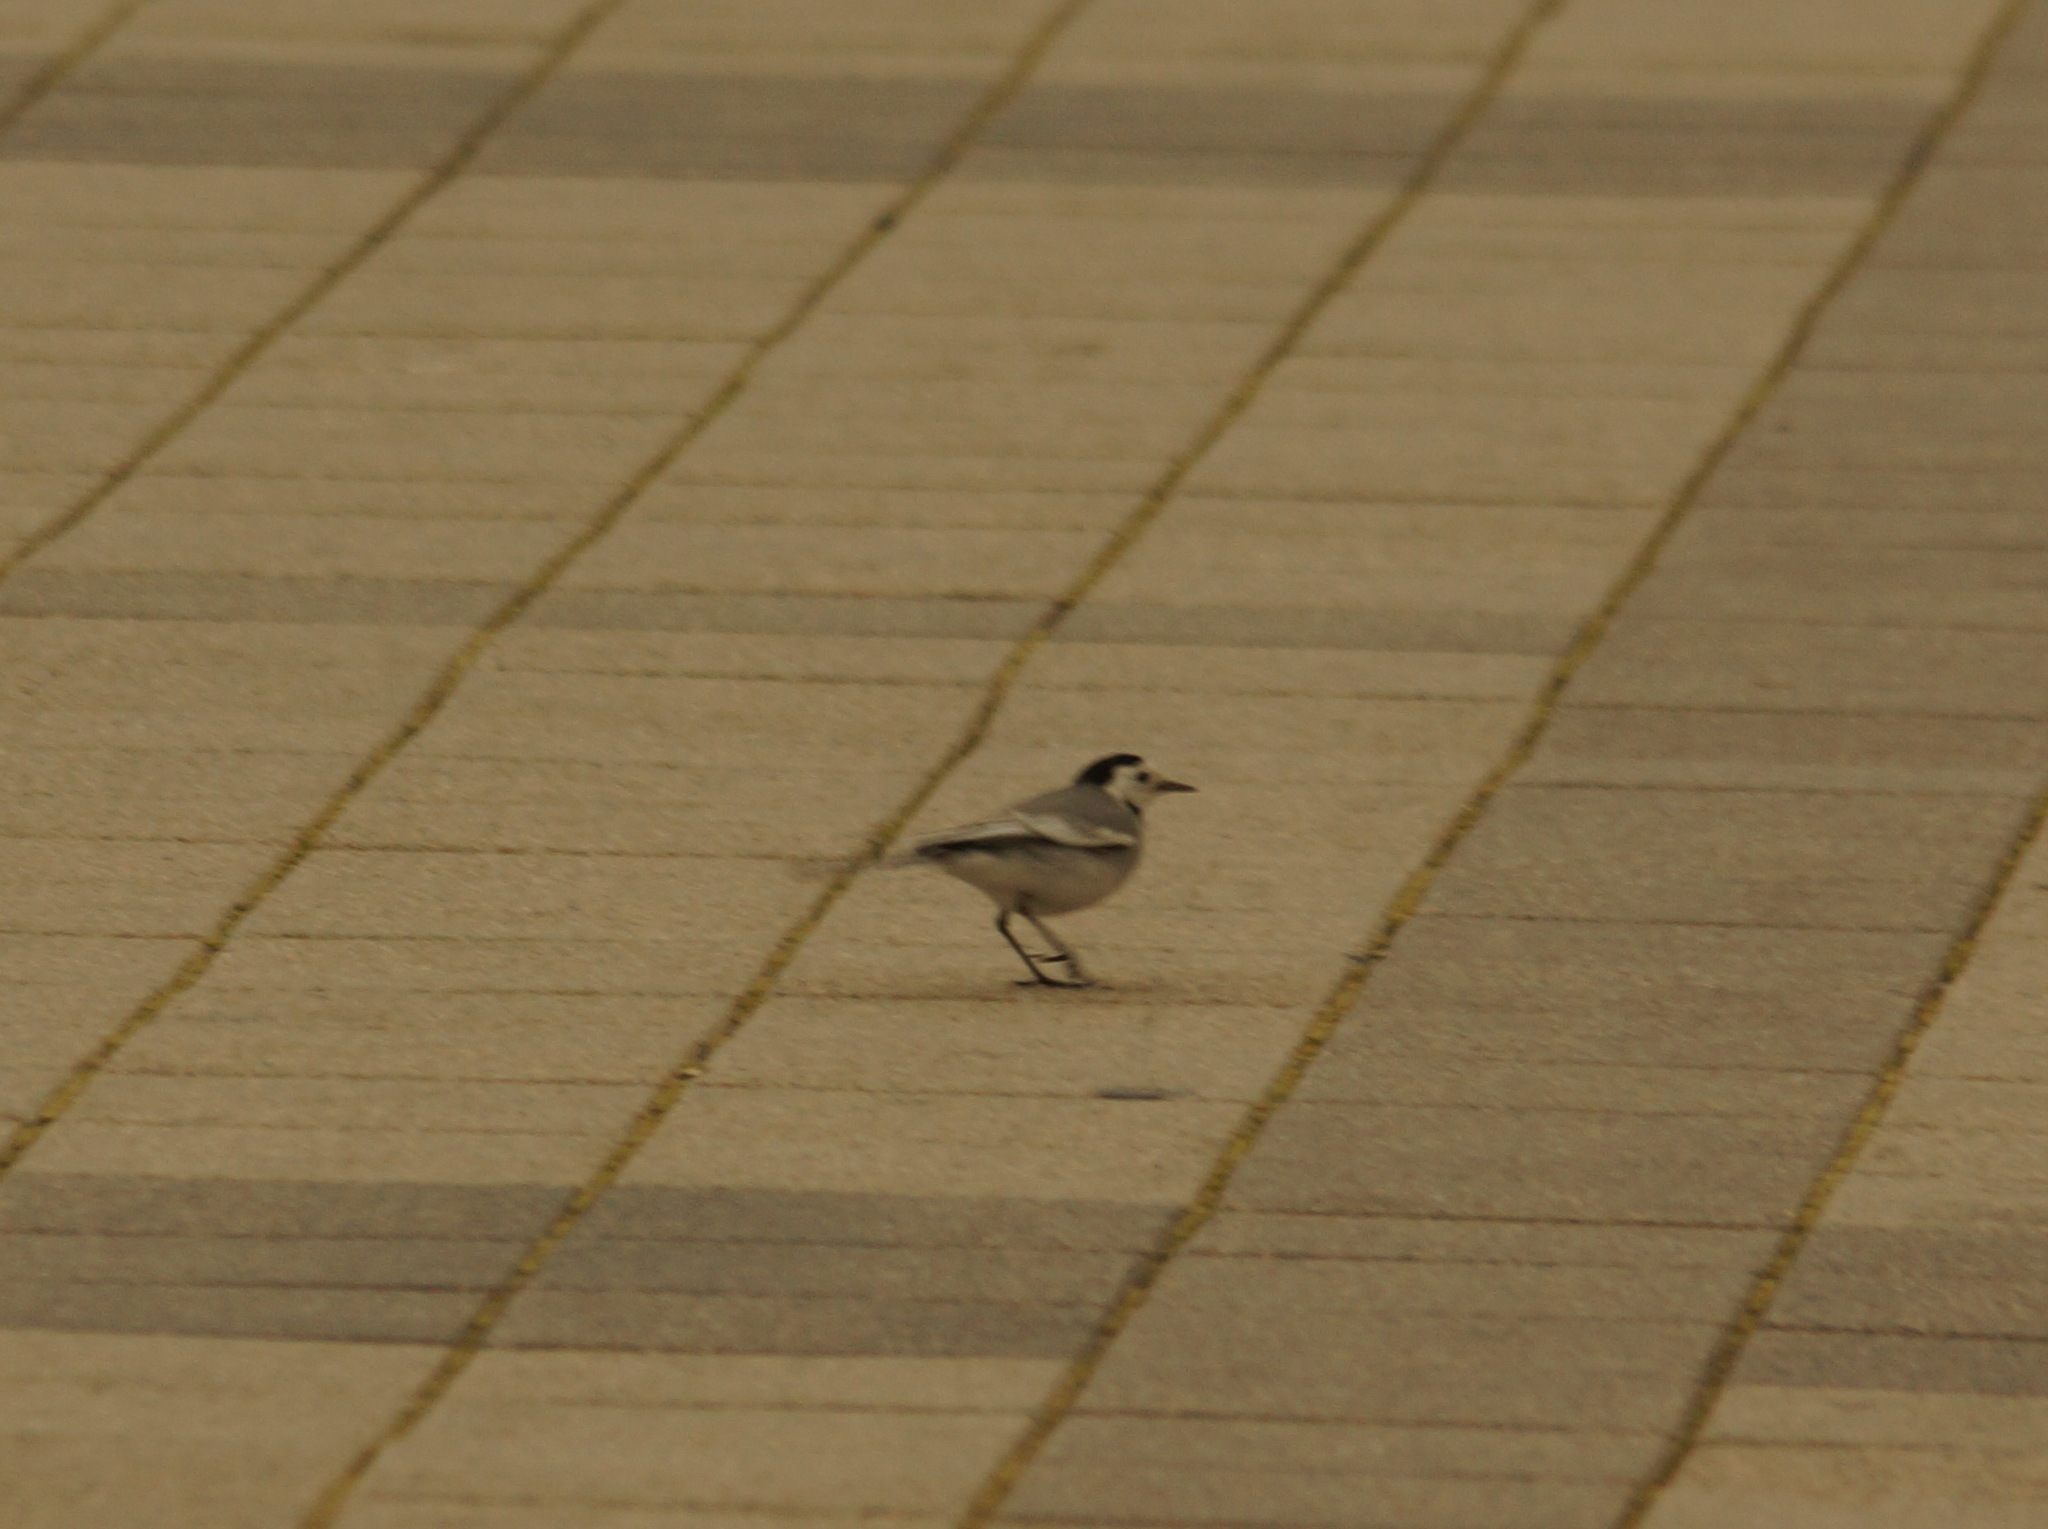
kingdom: Animalia
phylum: Chordata
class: Aves
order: Passeriformes
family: Motacillidae
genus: Motacilla
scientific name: Motacilla alba
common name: White wagtail
